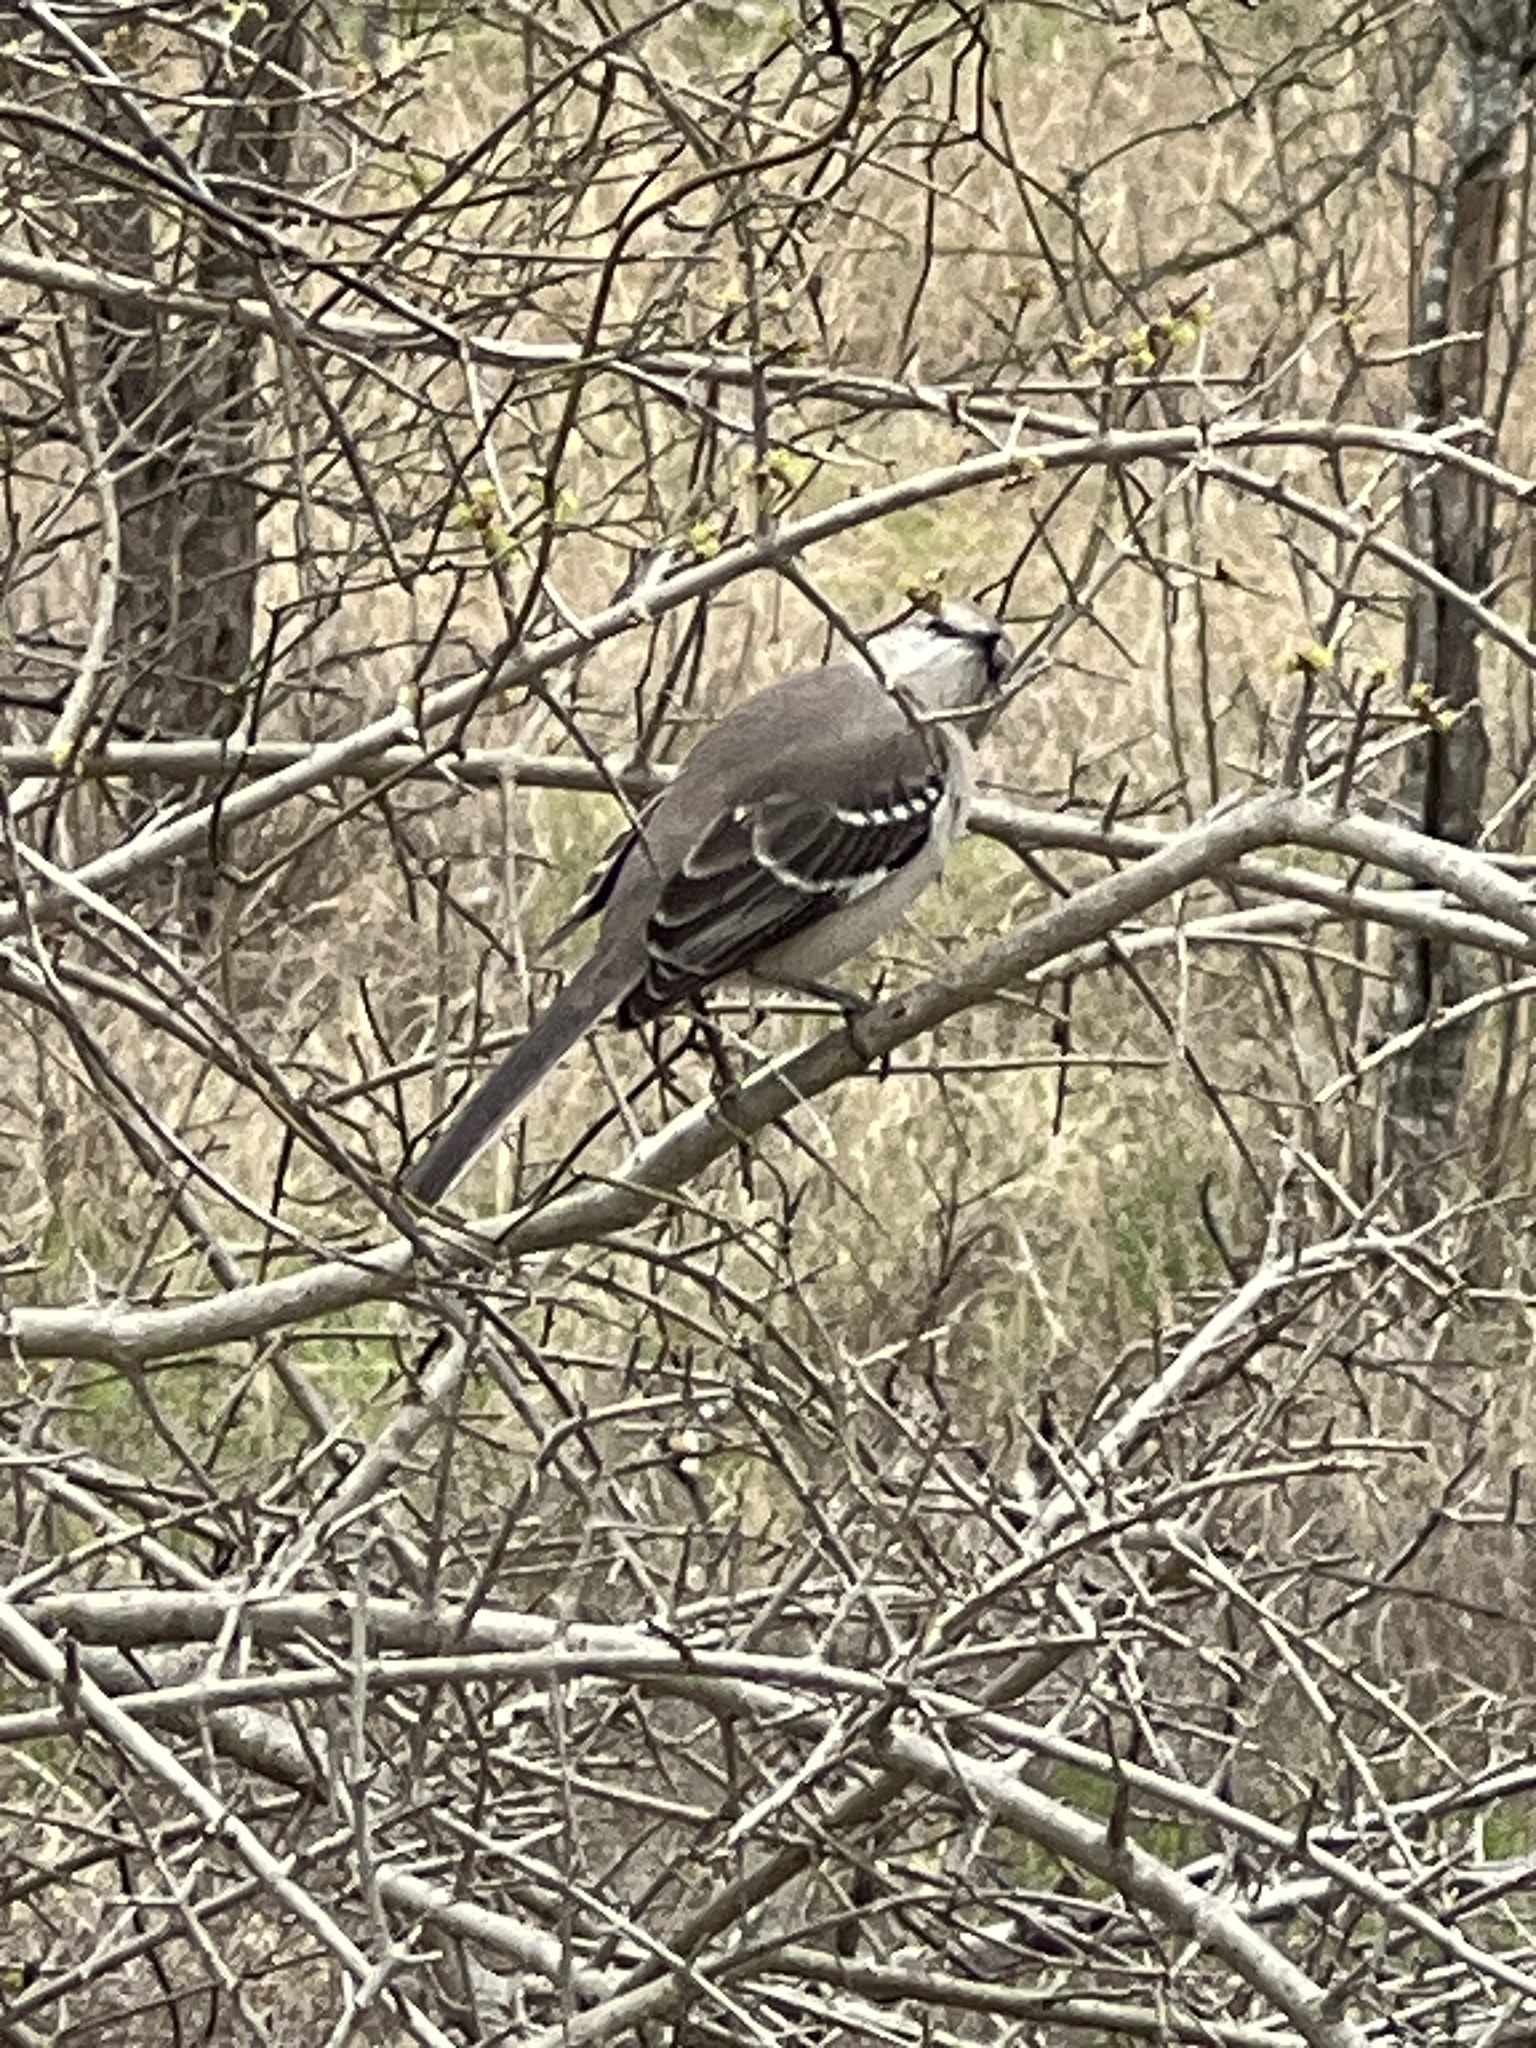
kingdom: Animalia
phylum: Chordata
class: Aves
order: Passeriformes
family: Mimidae
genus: Mimus
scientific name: Mimus polyglottos
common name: Northern mockingbird
